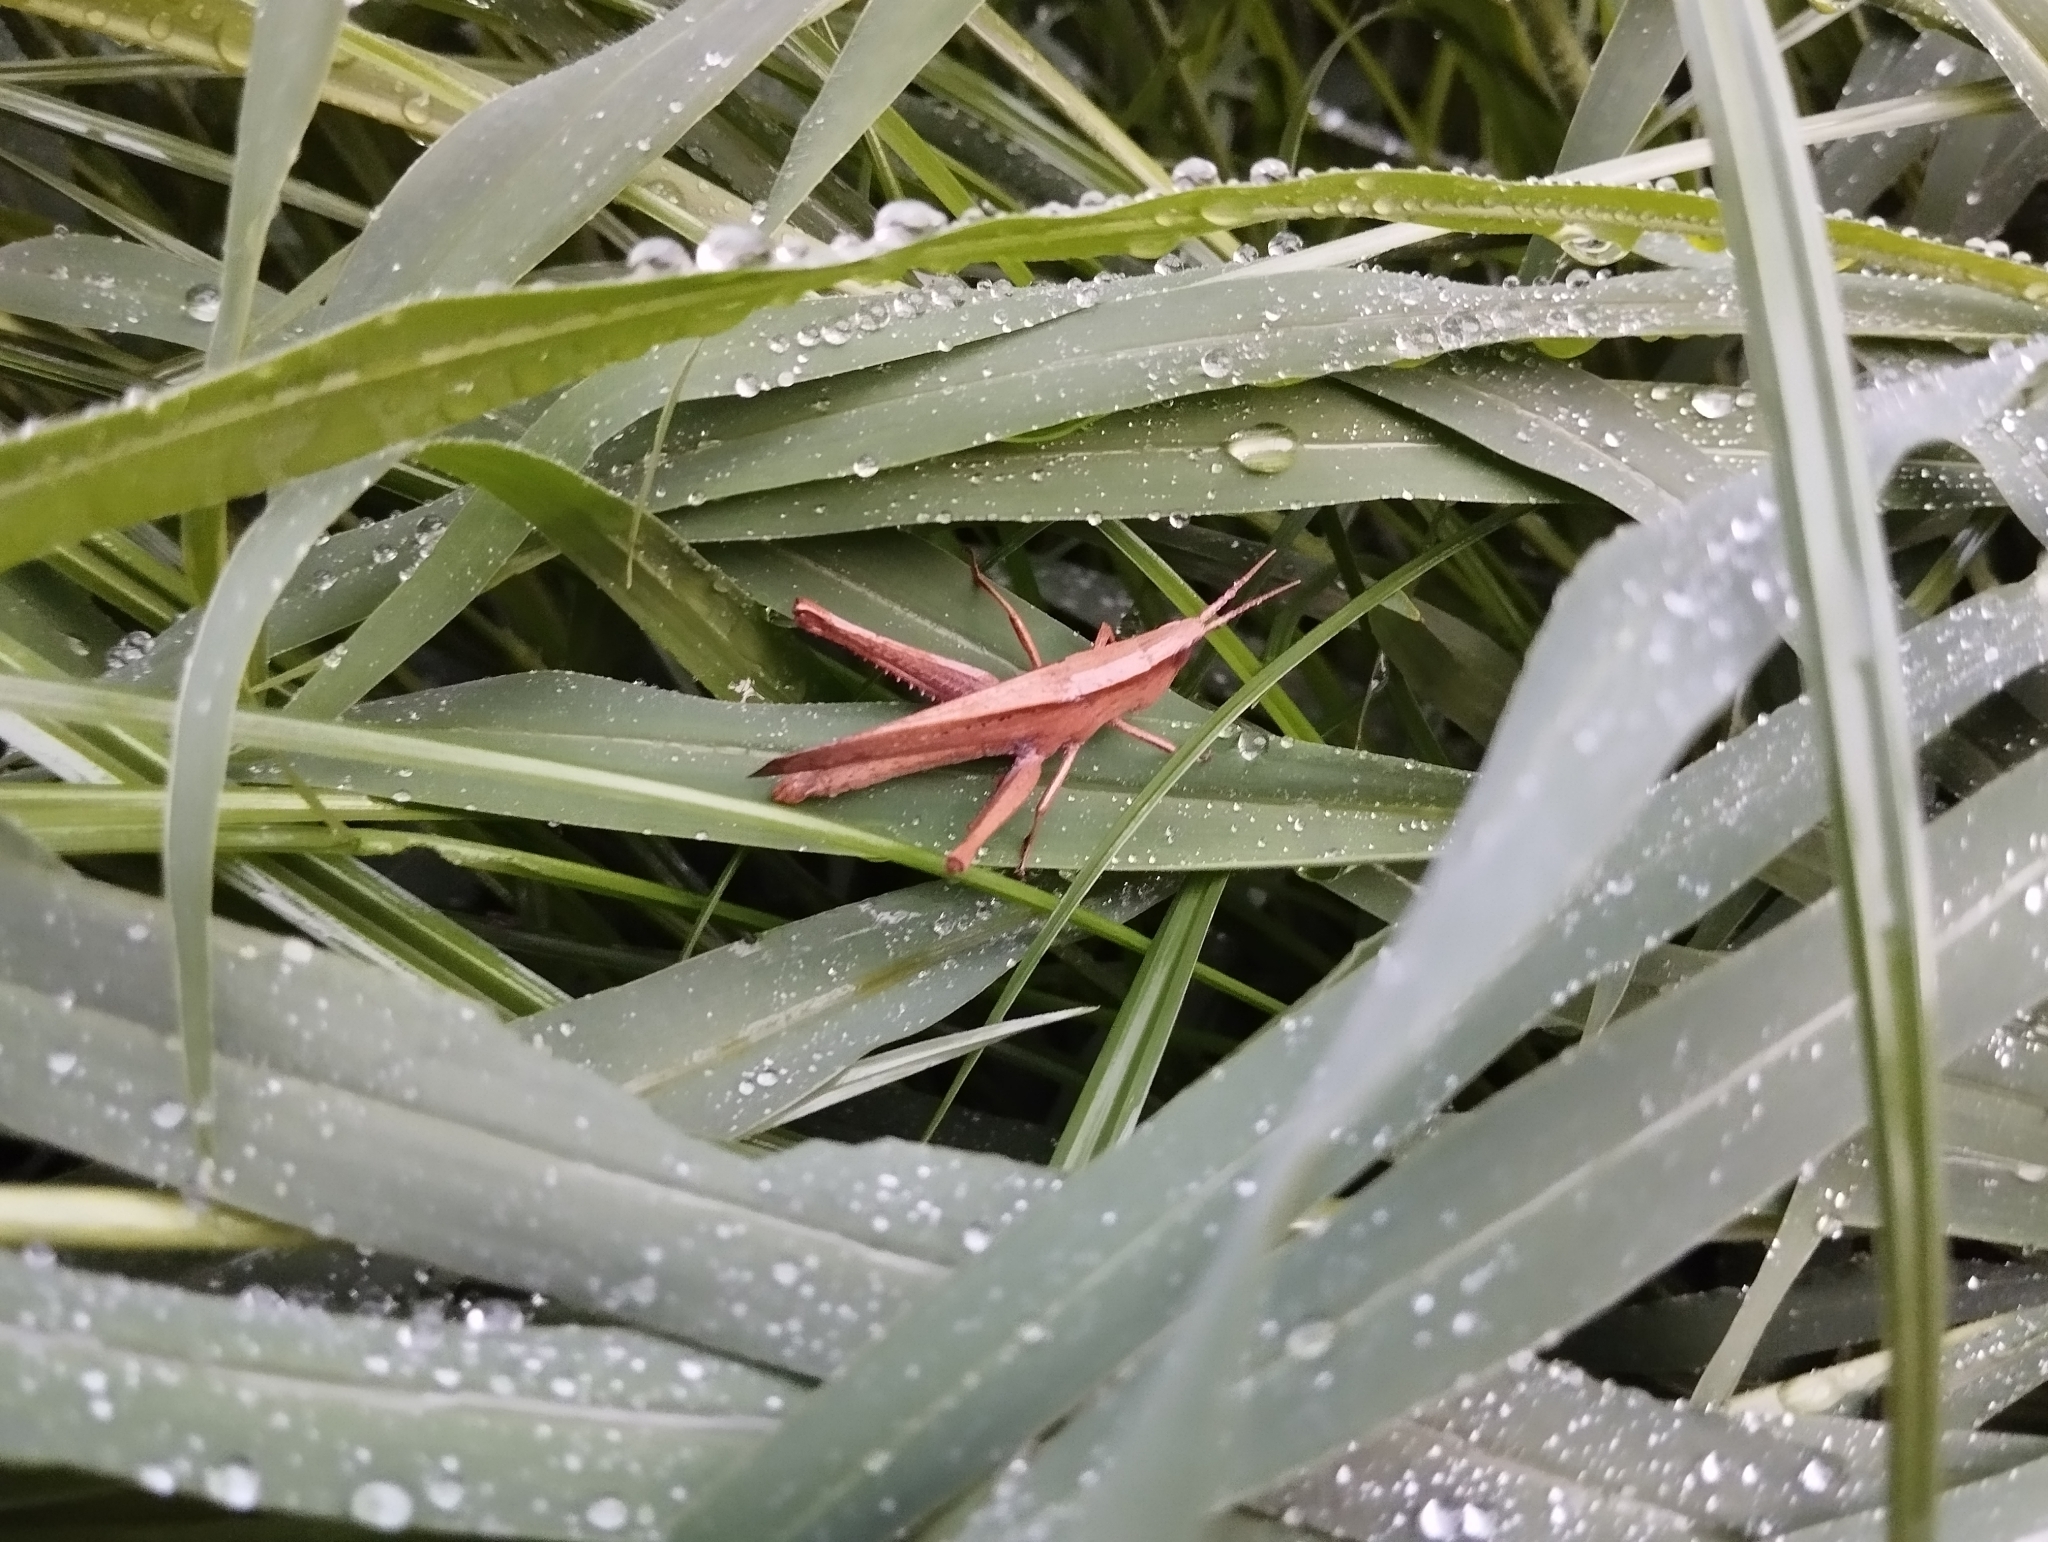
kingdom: Animalia
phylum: Arthropoda
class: Insecta
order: Orthoptera
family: Acrididae
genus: Metaleptea
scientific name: Metaleptea adspersa
